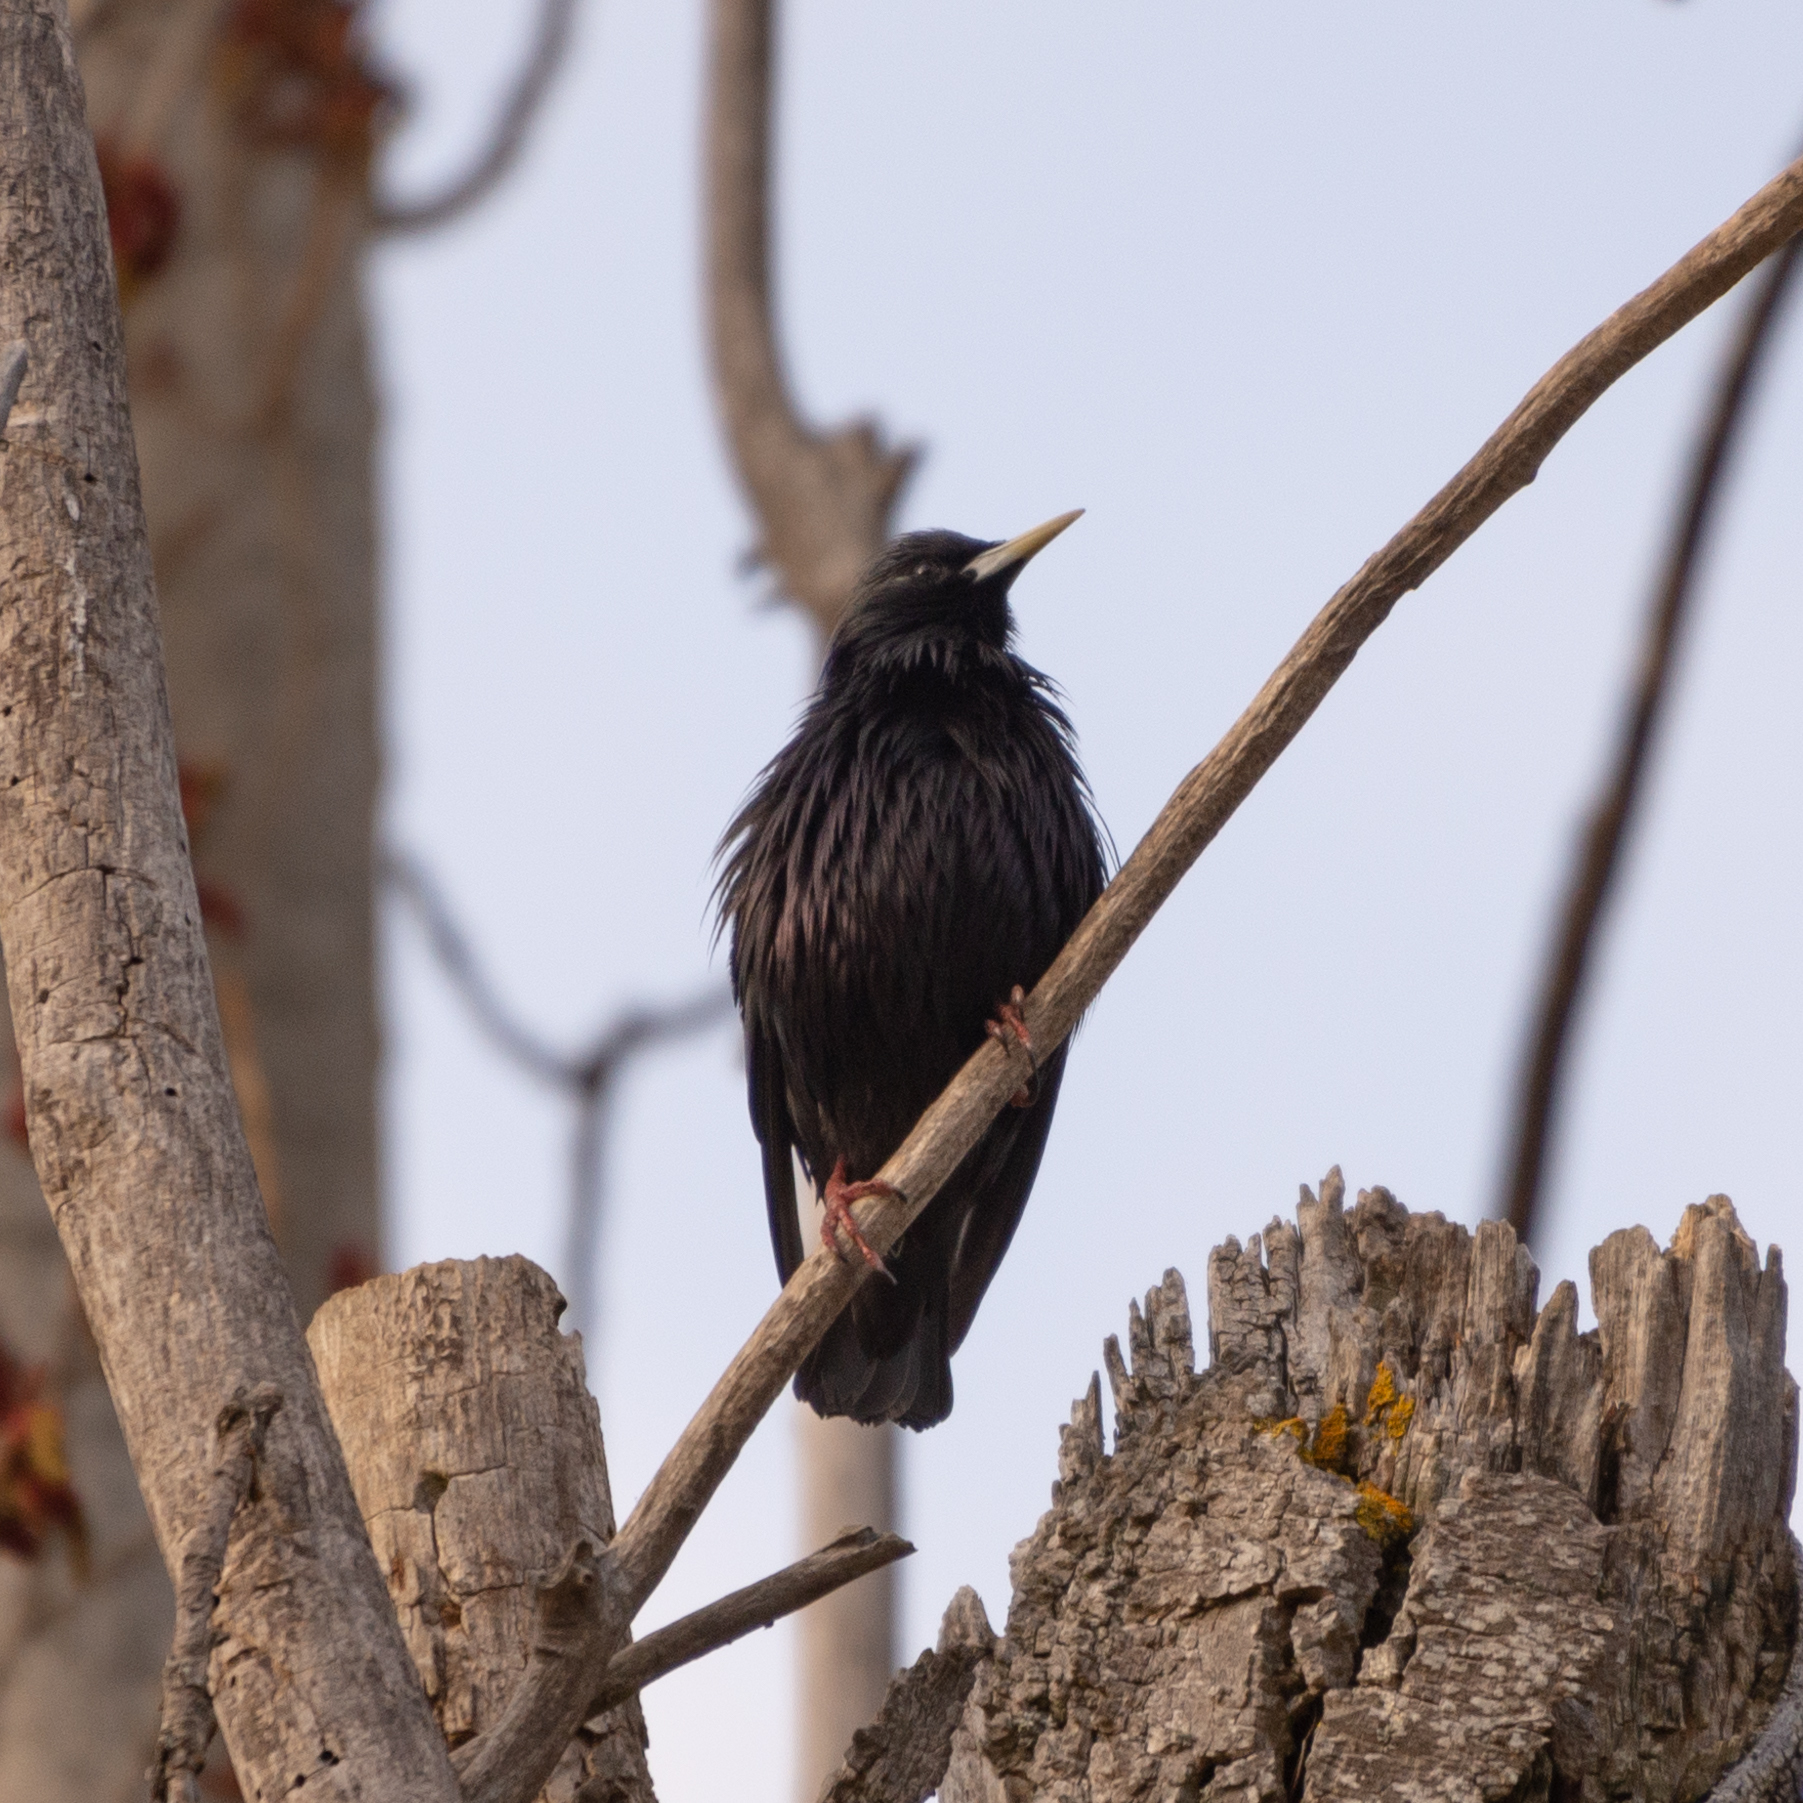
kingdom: Animalia
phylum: Chordata
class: Aves
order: Passeriformes
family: Sturnidae
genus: Sturnus
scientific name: Sturnus unicolor
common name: Spotless starling
